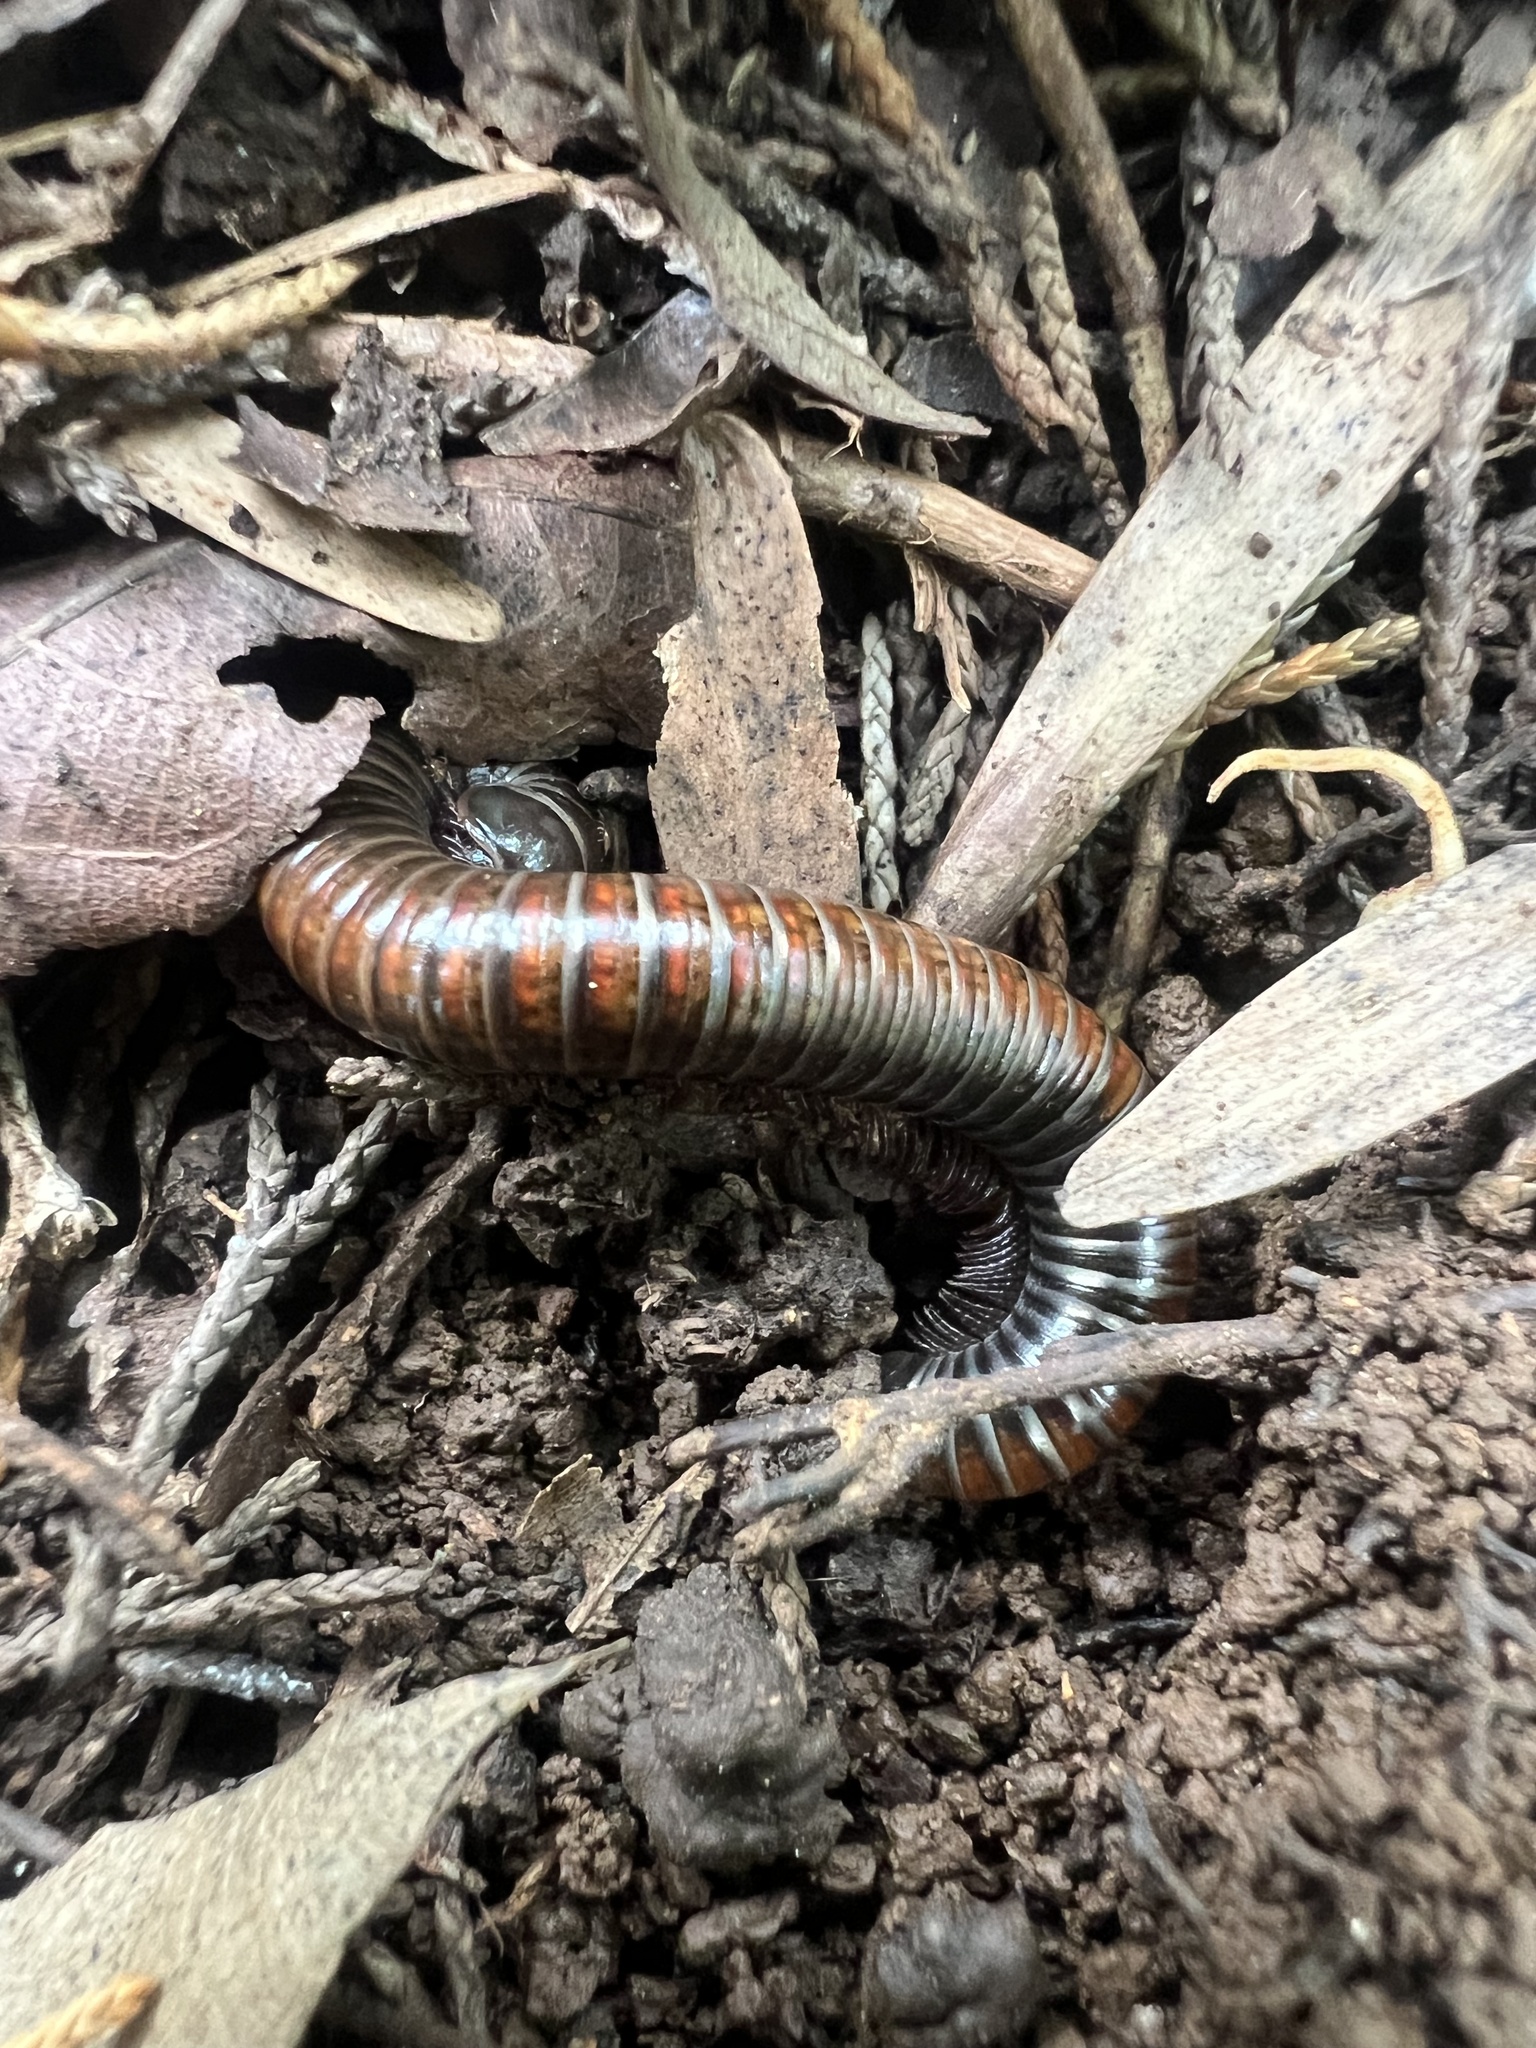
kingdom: Animalia
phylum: Arthropoda
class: Diplopoda
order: Spirostreptida
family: Choctellidae
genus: Choctella
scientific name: Choctella cumminsi
